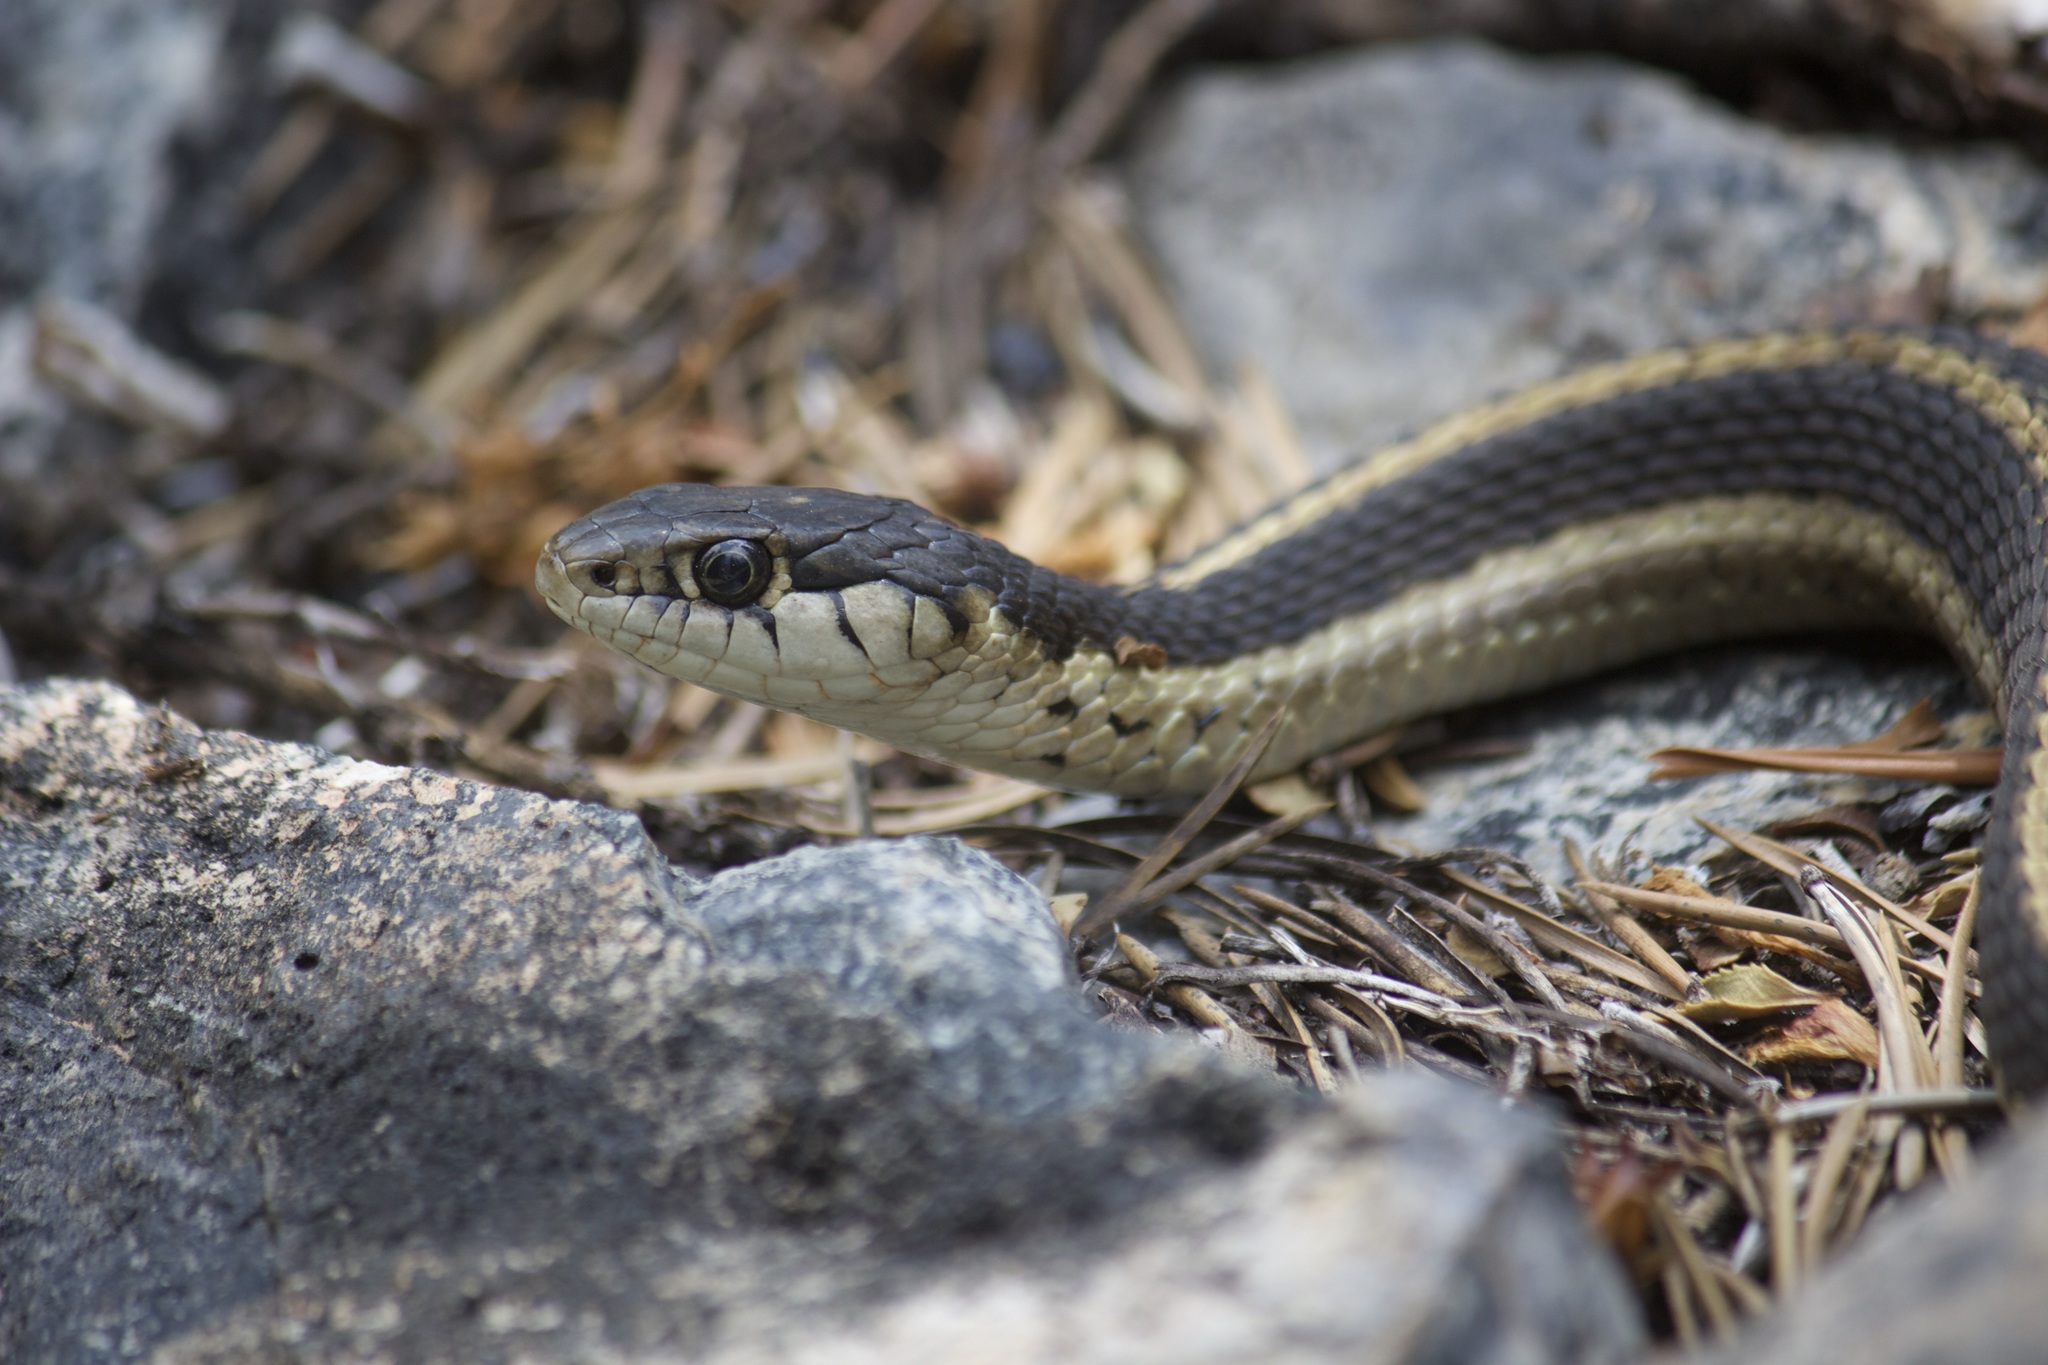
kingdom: Animalia
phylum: Chordata
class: Squamata
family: Colubridae
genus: Thamnophis
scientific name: Thamnophis elegans
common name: Western terrestrial garter snake
